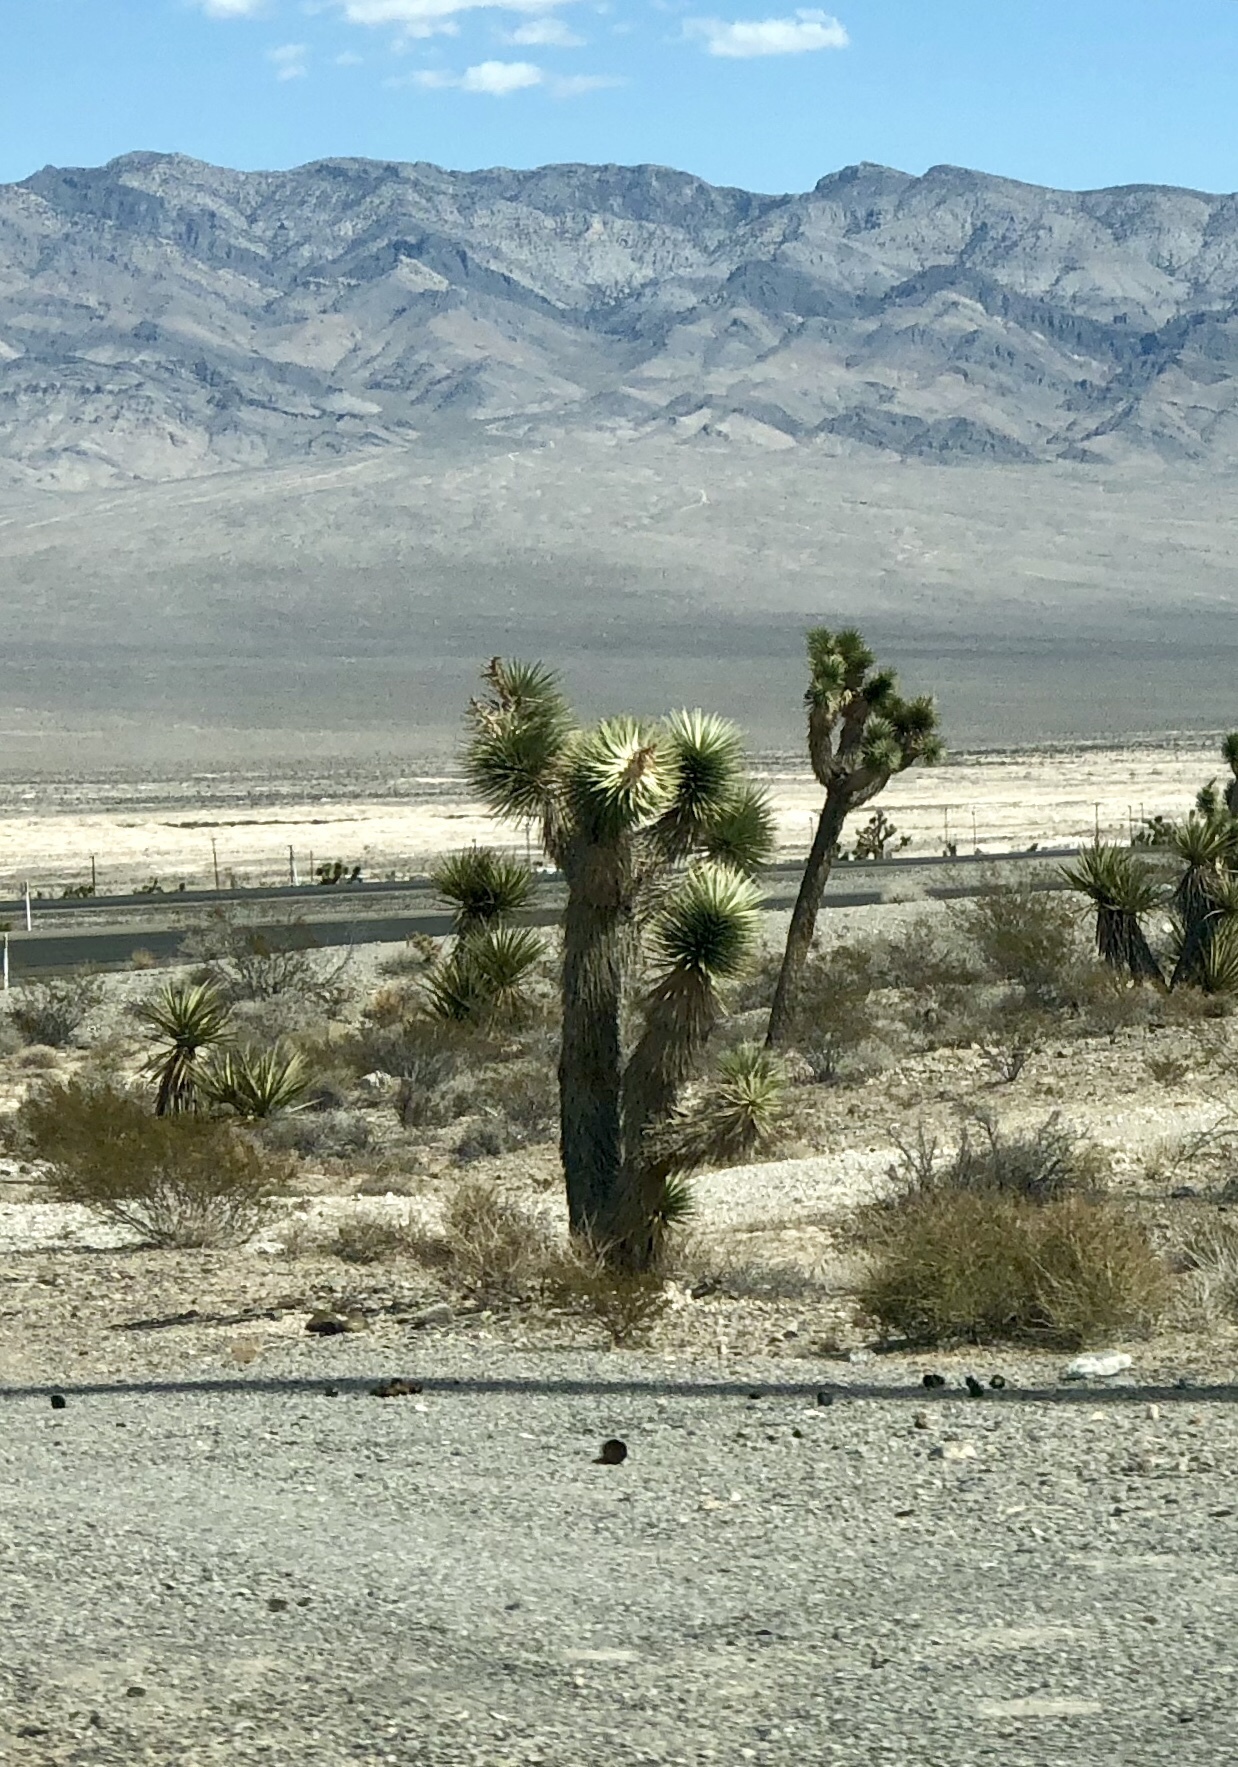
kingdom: Plantae
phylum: Tracheophyta
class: Liliopsida
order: Asparagales
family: Asparagaceae
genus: Yucca
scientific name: Yucca brevifolia
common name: Joshua tree
